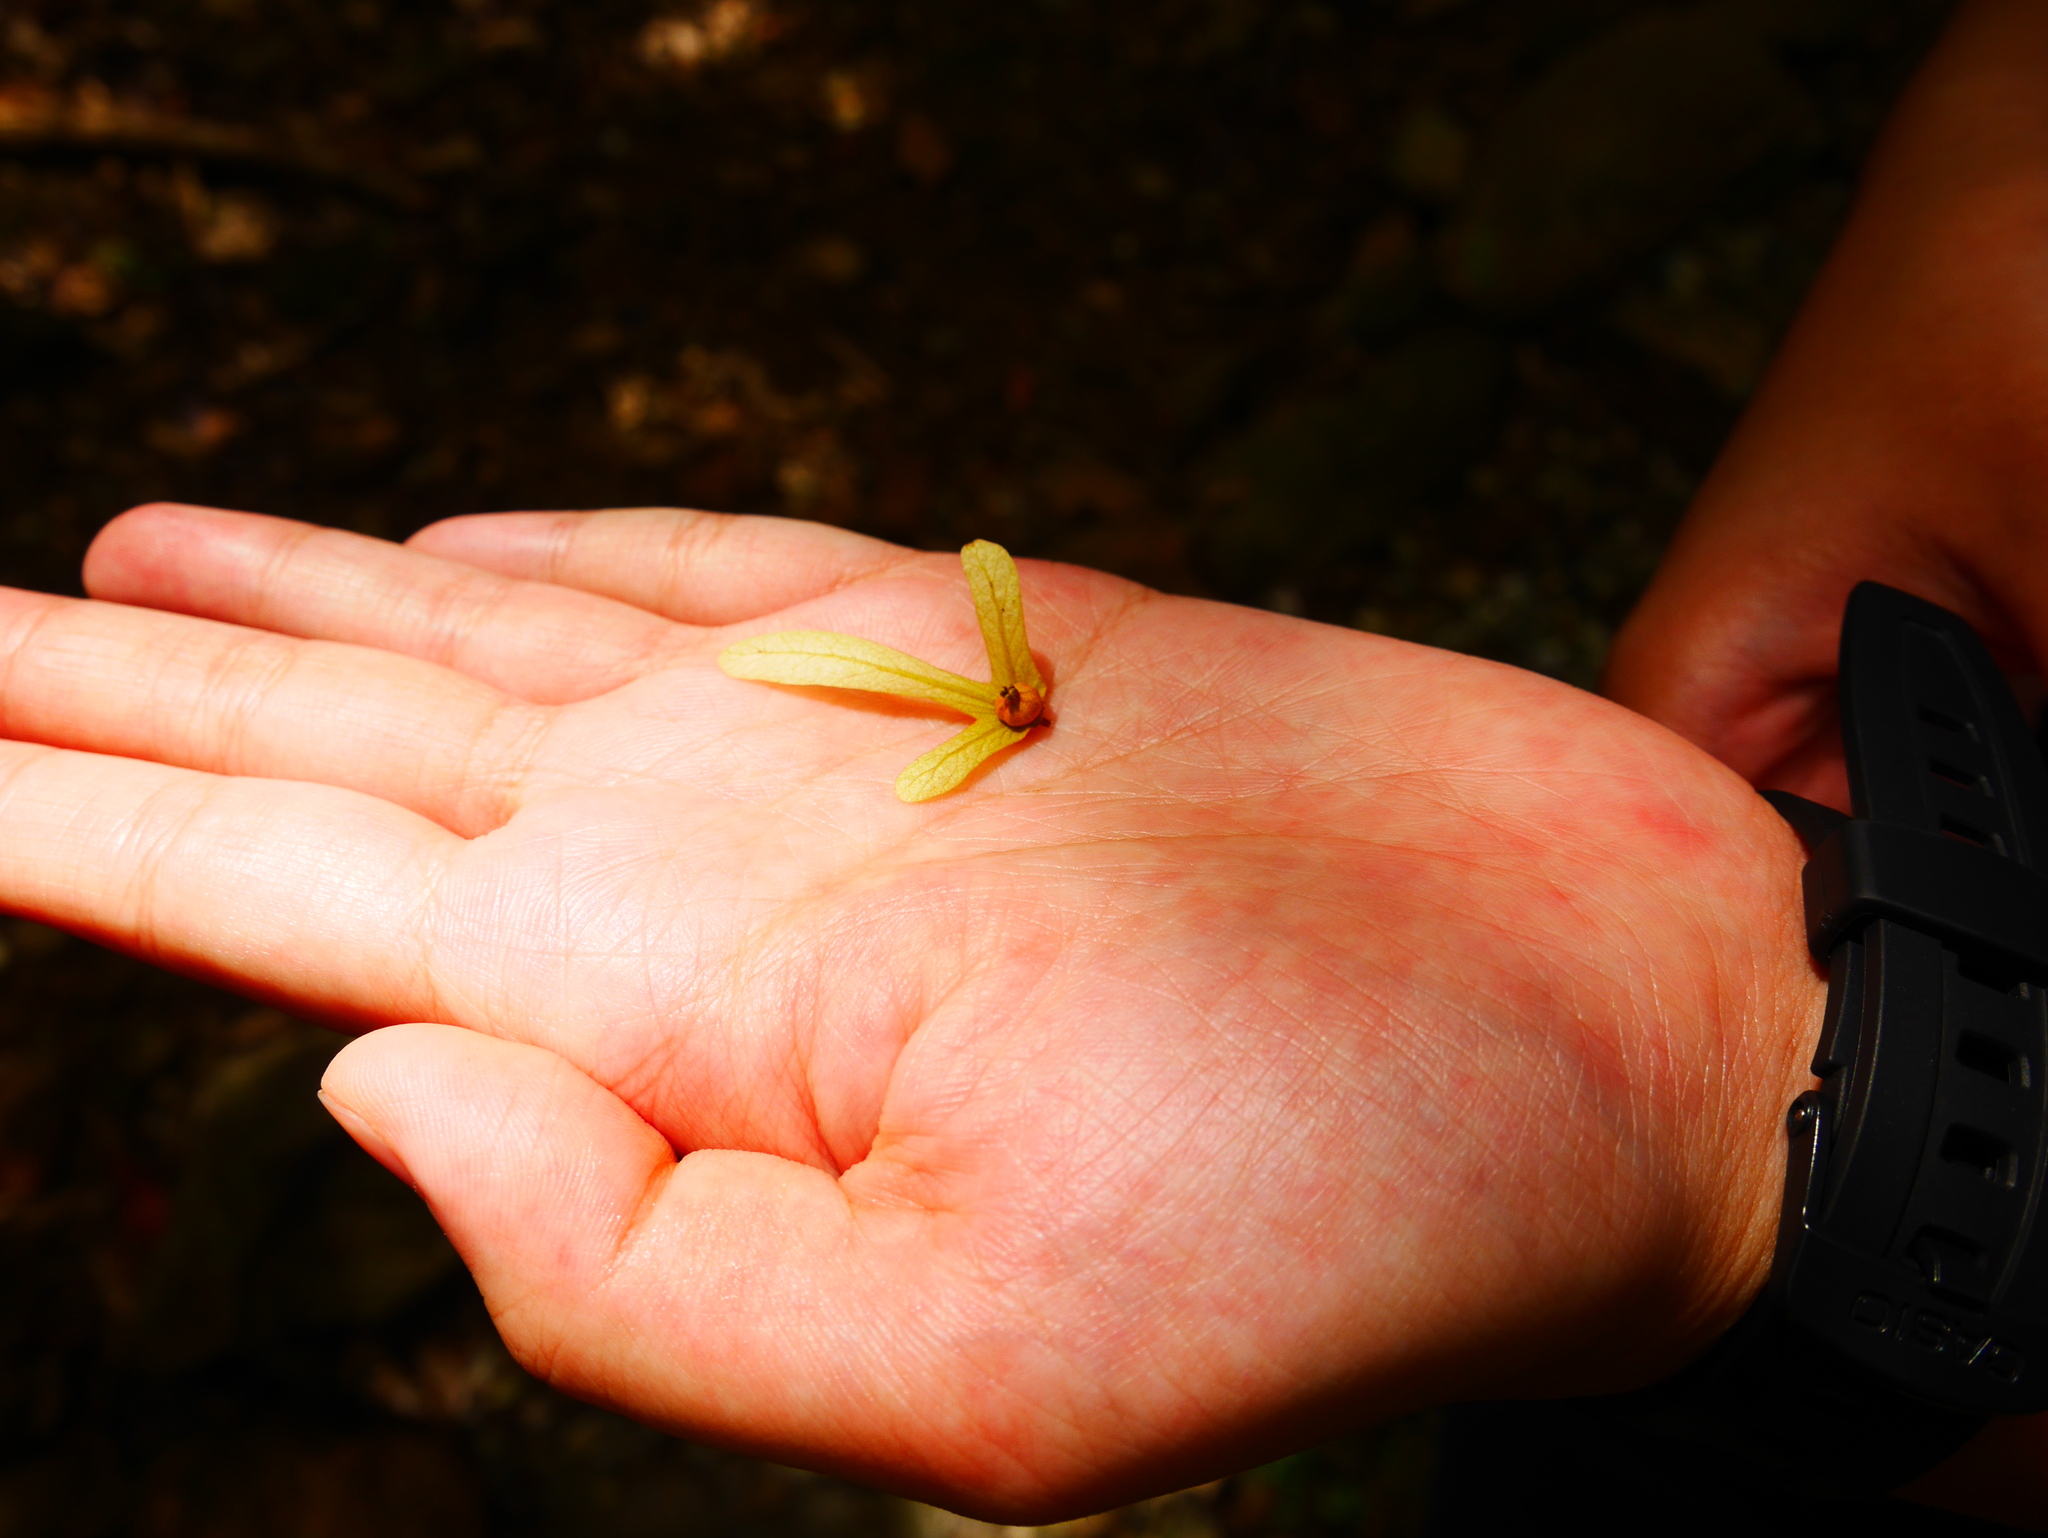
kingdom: Plantae
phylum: Tracheophyta
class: Magnoliopsida
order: Fagales
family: Juglandaceae
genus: Engelhardia
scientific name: Engelhardia roxburghiana
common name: Golden malay beam
